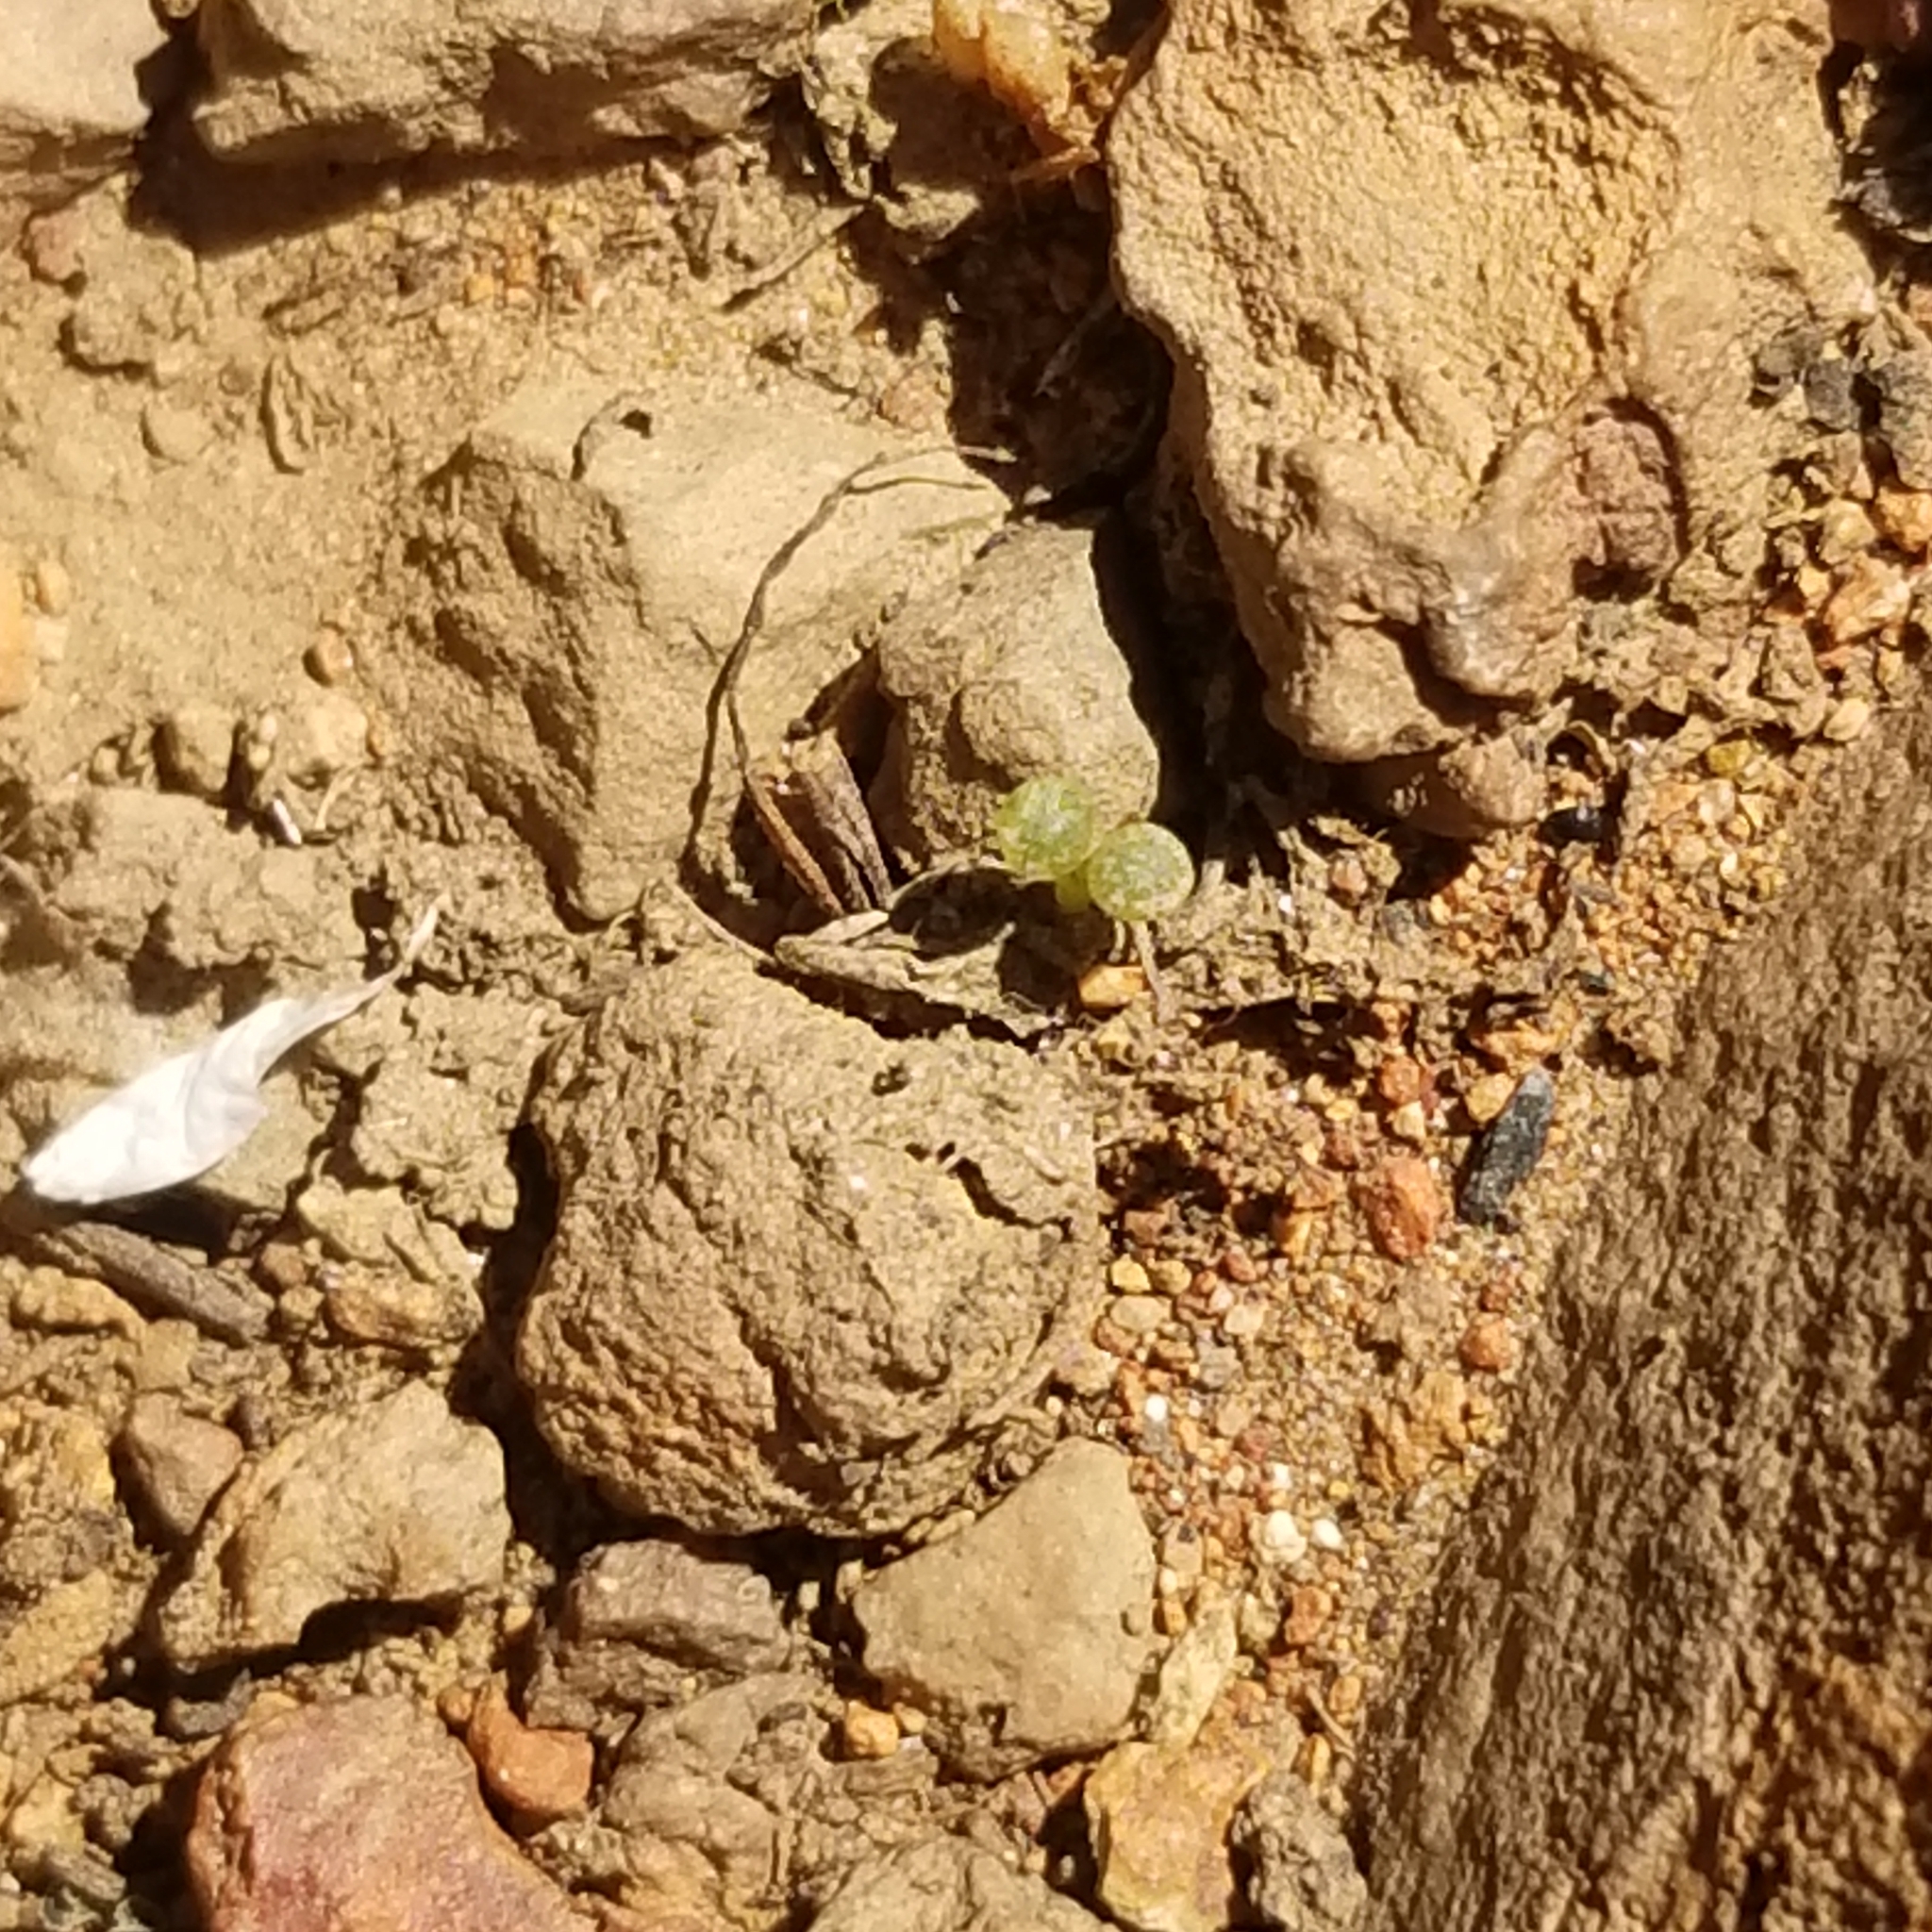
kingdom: Plantae
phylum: Tracheophyta
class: Magnoliopsida
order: Saxifragales
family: Crassulaceae
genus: Dudleya
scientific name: Dudleya variegata
